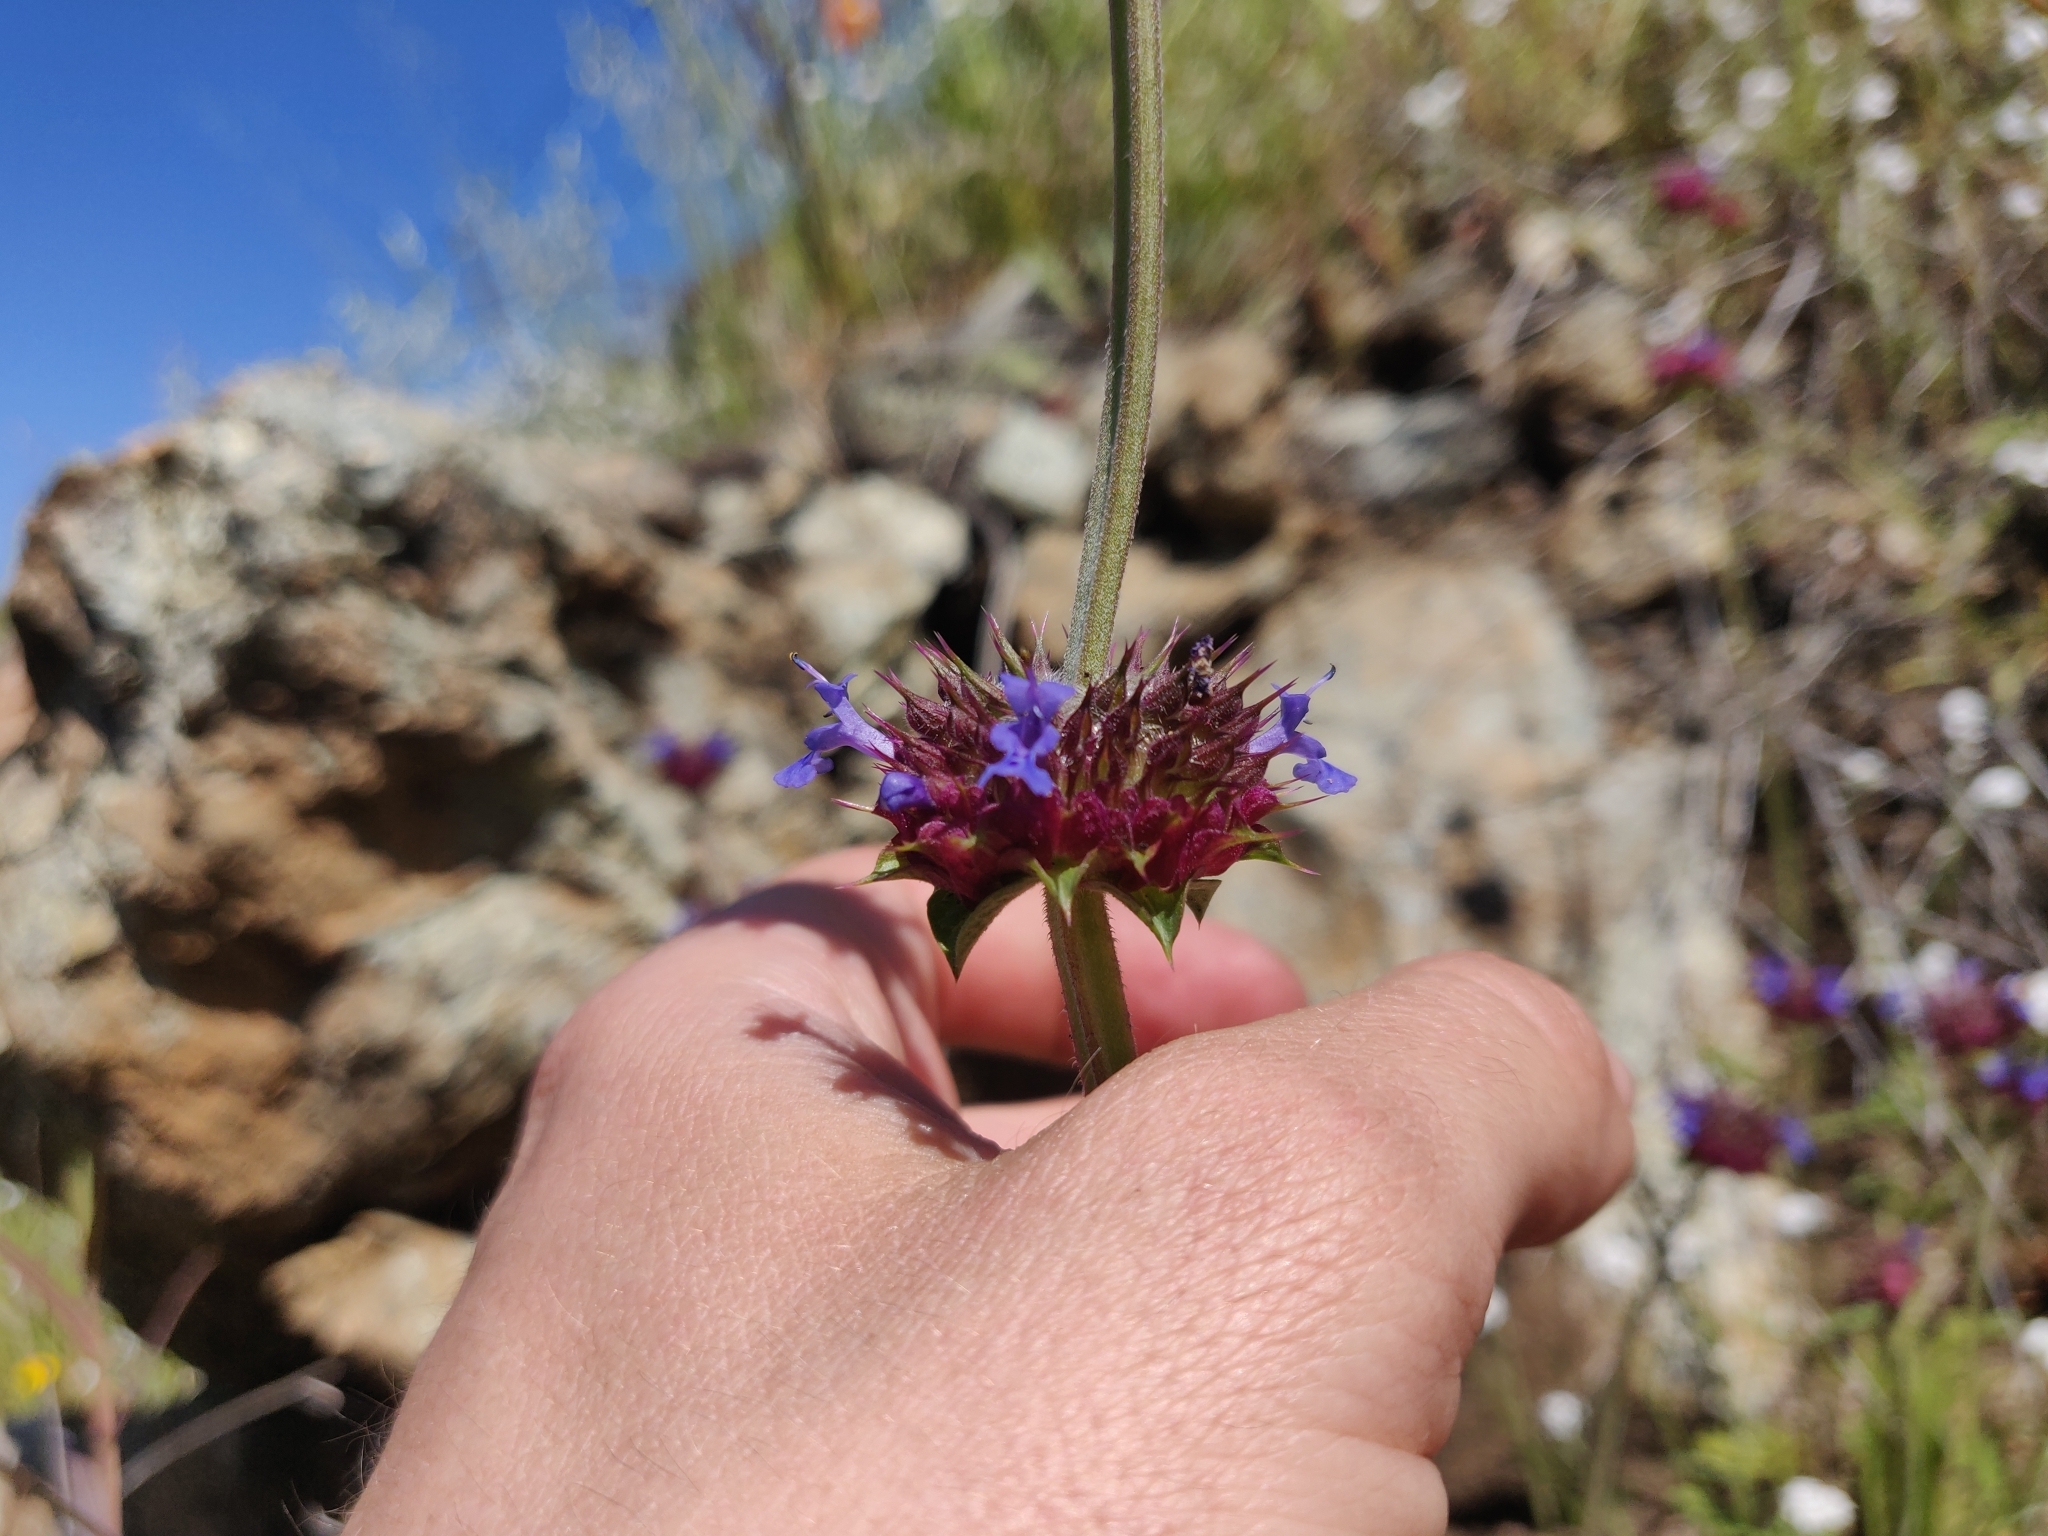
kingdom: Plantae
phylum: Tracheophyta
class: Magnoliopsida
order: Lamiales
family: Lamiaceae
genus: Salvia
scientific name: Salvia columbariae
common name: Chia
